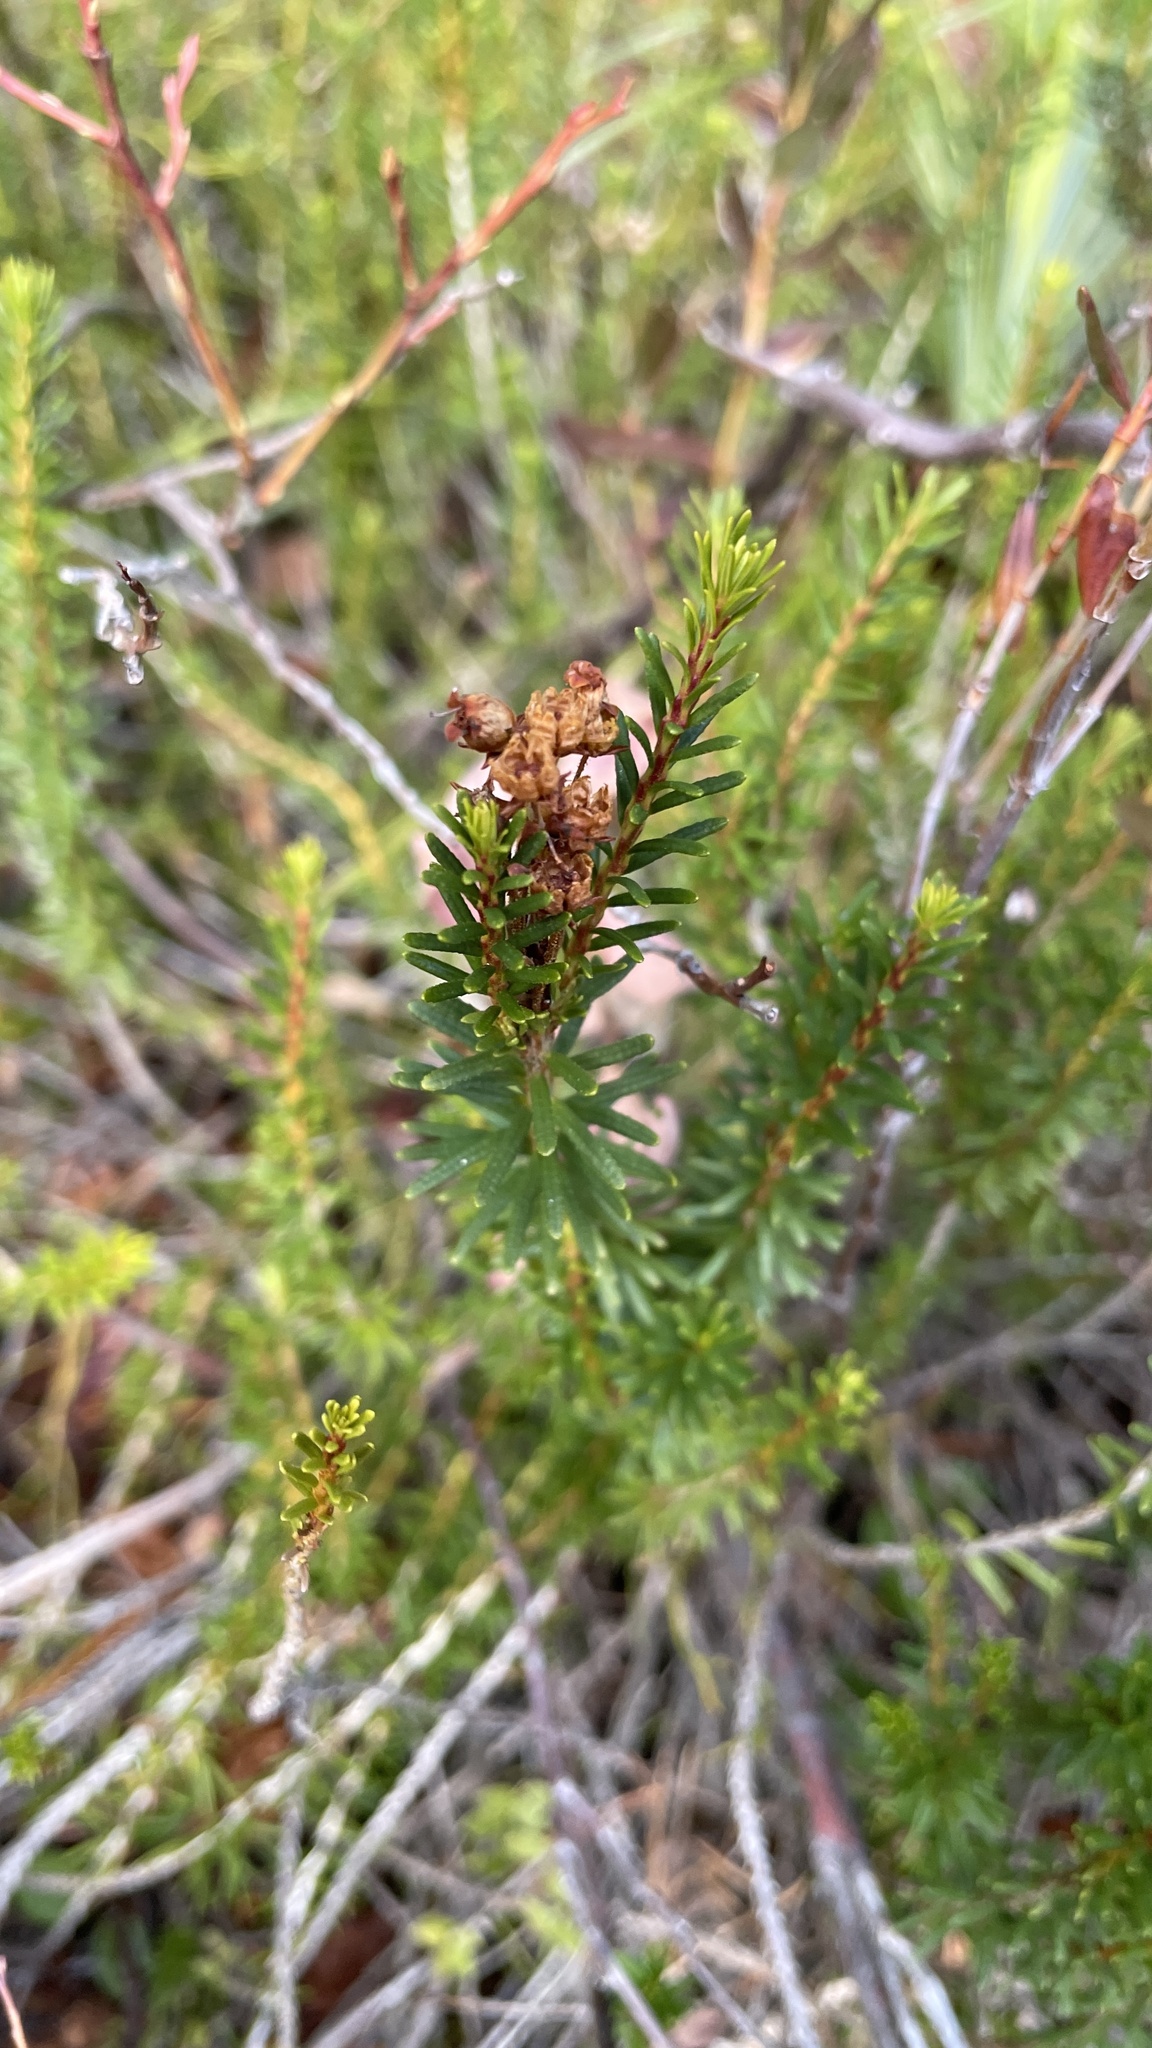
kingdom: Plantae
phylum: Tracheophyta
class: Magnoliopsida
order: Ericales
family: Ericaceae
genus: Phyllodoce
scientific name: Phyllodoce empetriformis
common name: Pink mountain heather
